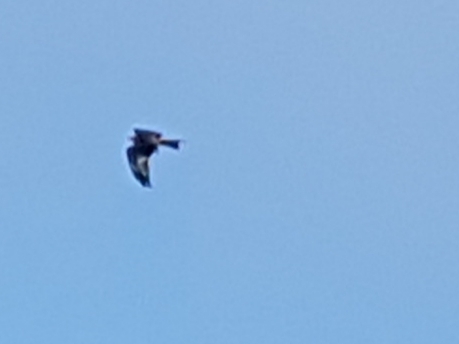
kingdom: Animalia
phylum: Chordata
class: Aves
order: Accipitriformes
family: Accipitridae
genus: Milvus
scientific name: Milvus milvus
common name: Red kite
